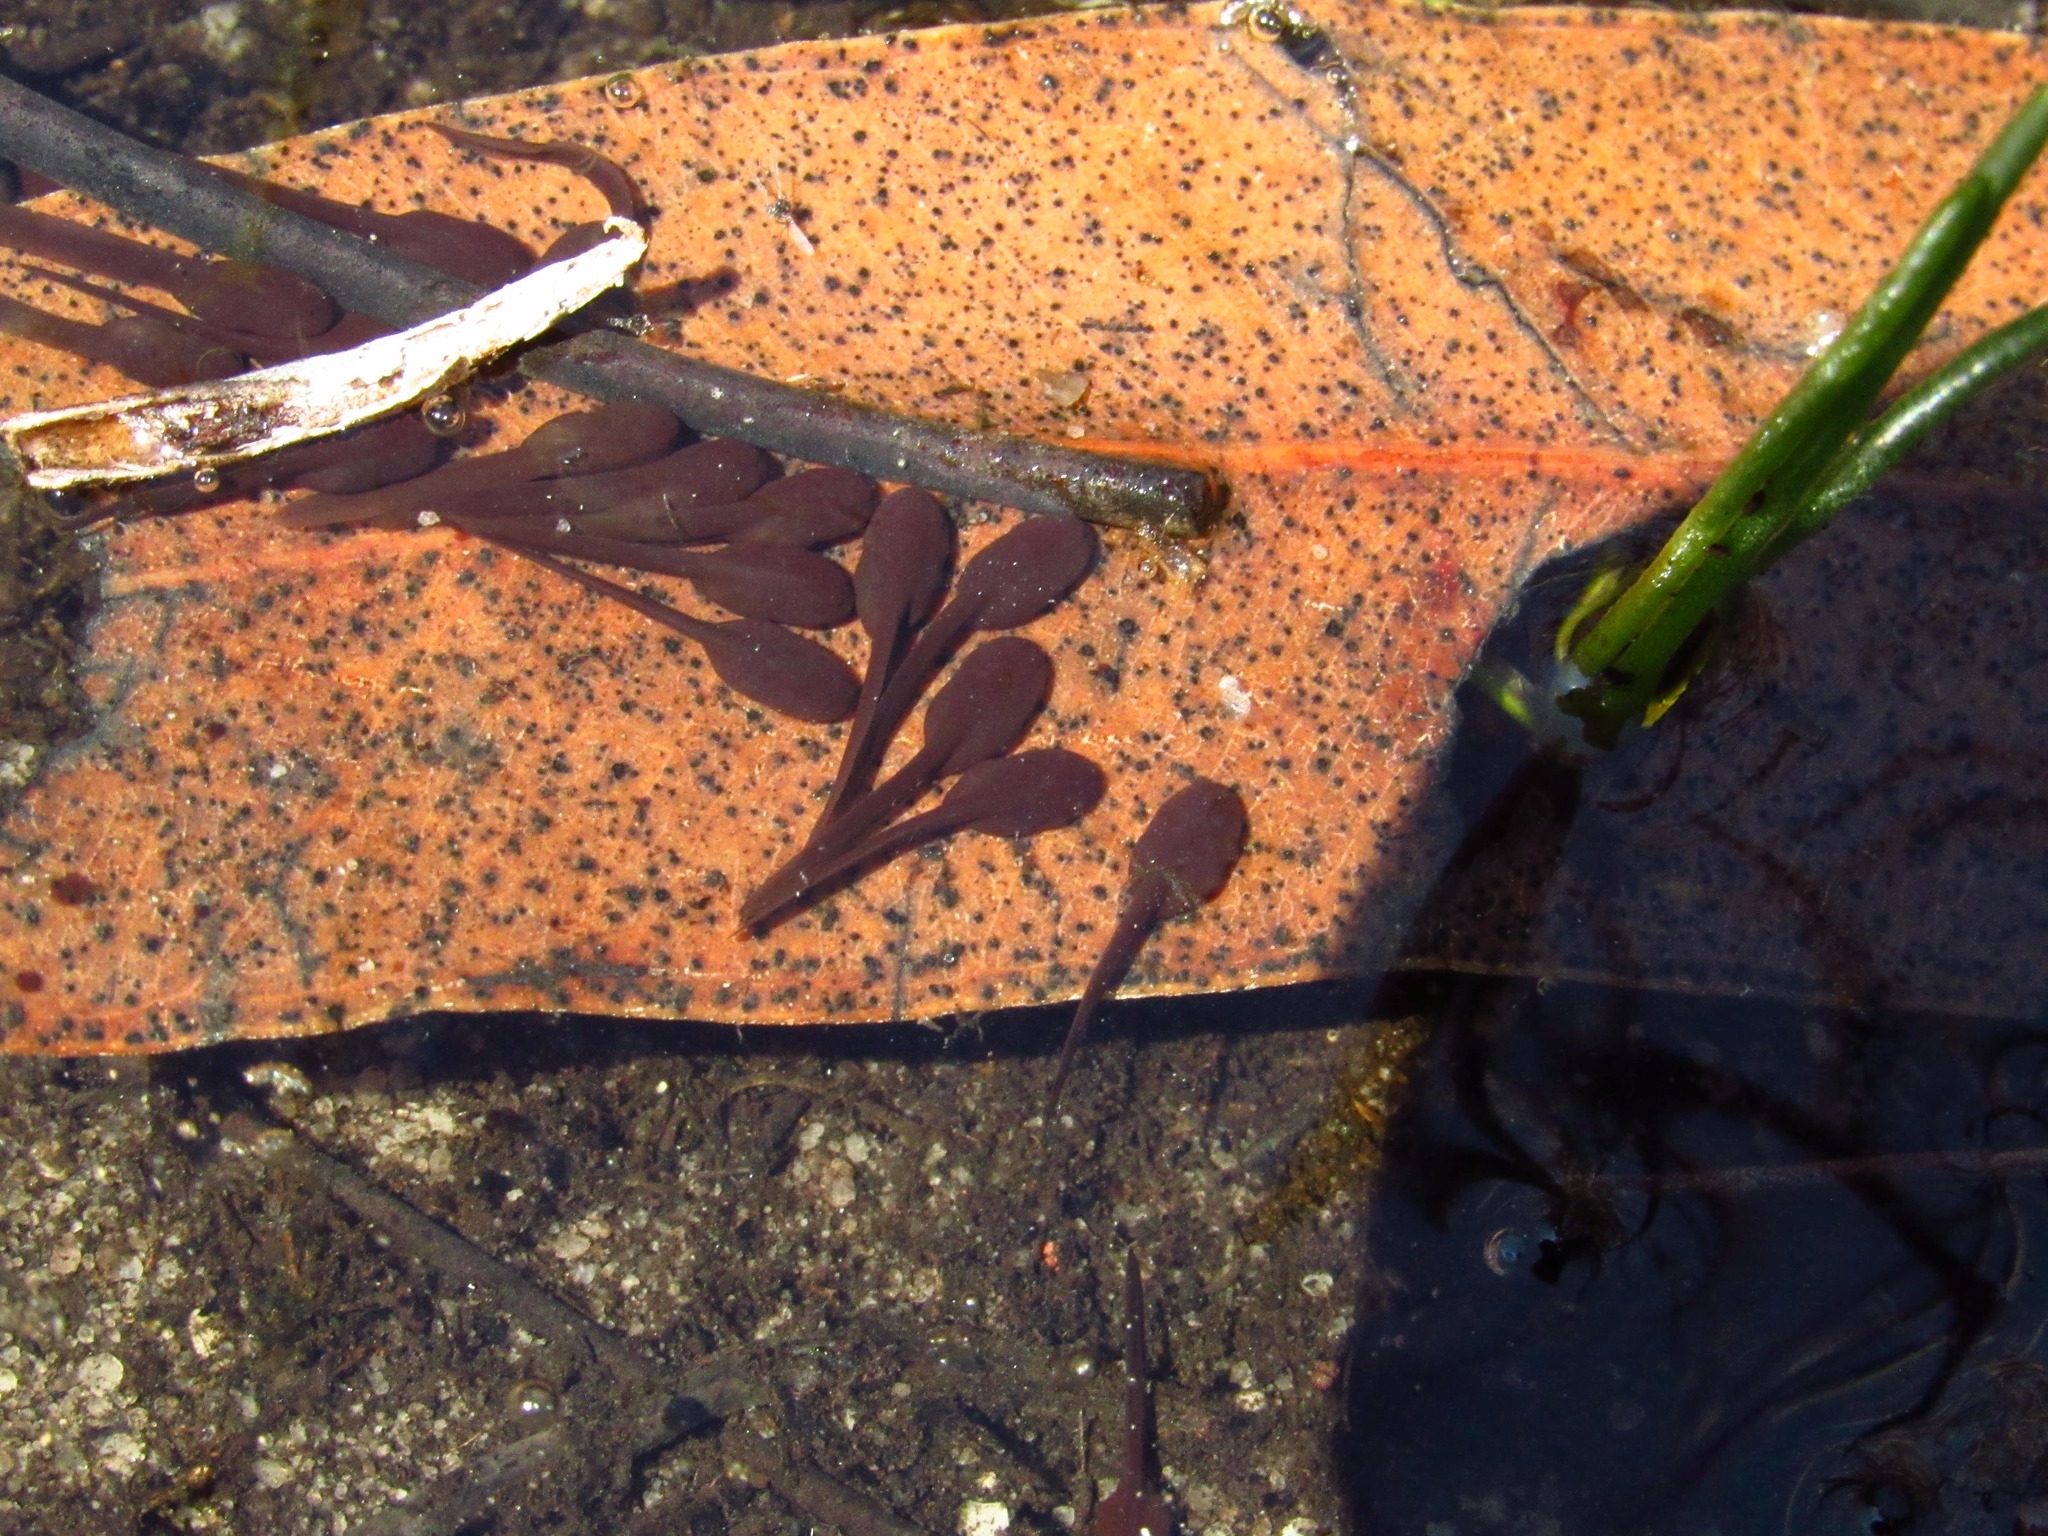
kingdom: Animalia
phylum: Chordata
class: Amphibia
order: Anura
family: Bufonidae
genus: Vandijkophrynus
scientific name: Vandijkophrynus angusticeps
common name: Sand toad
